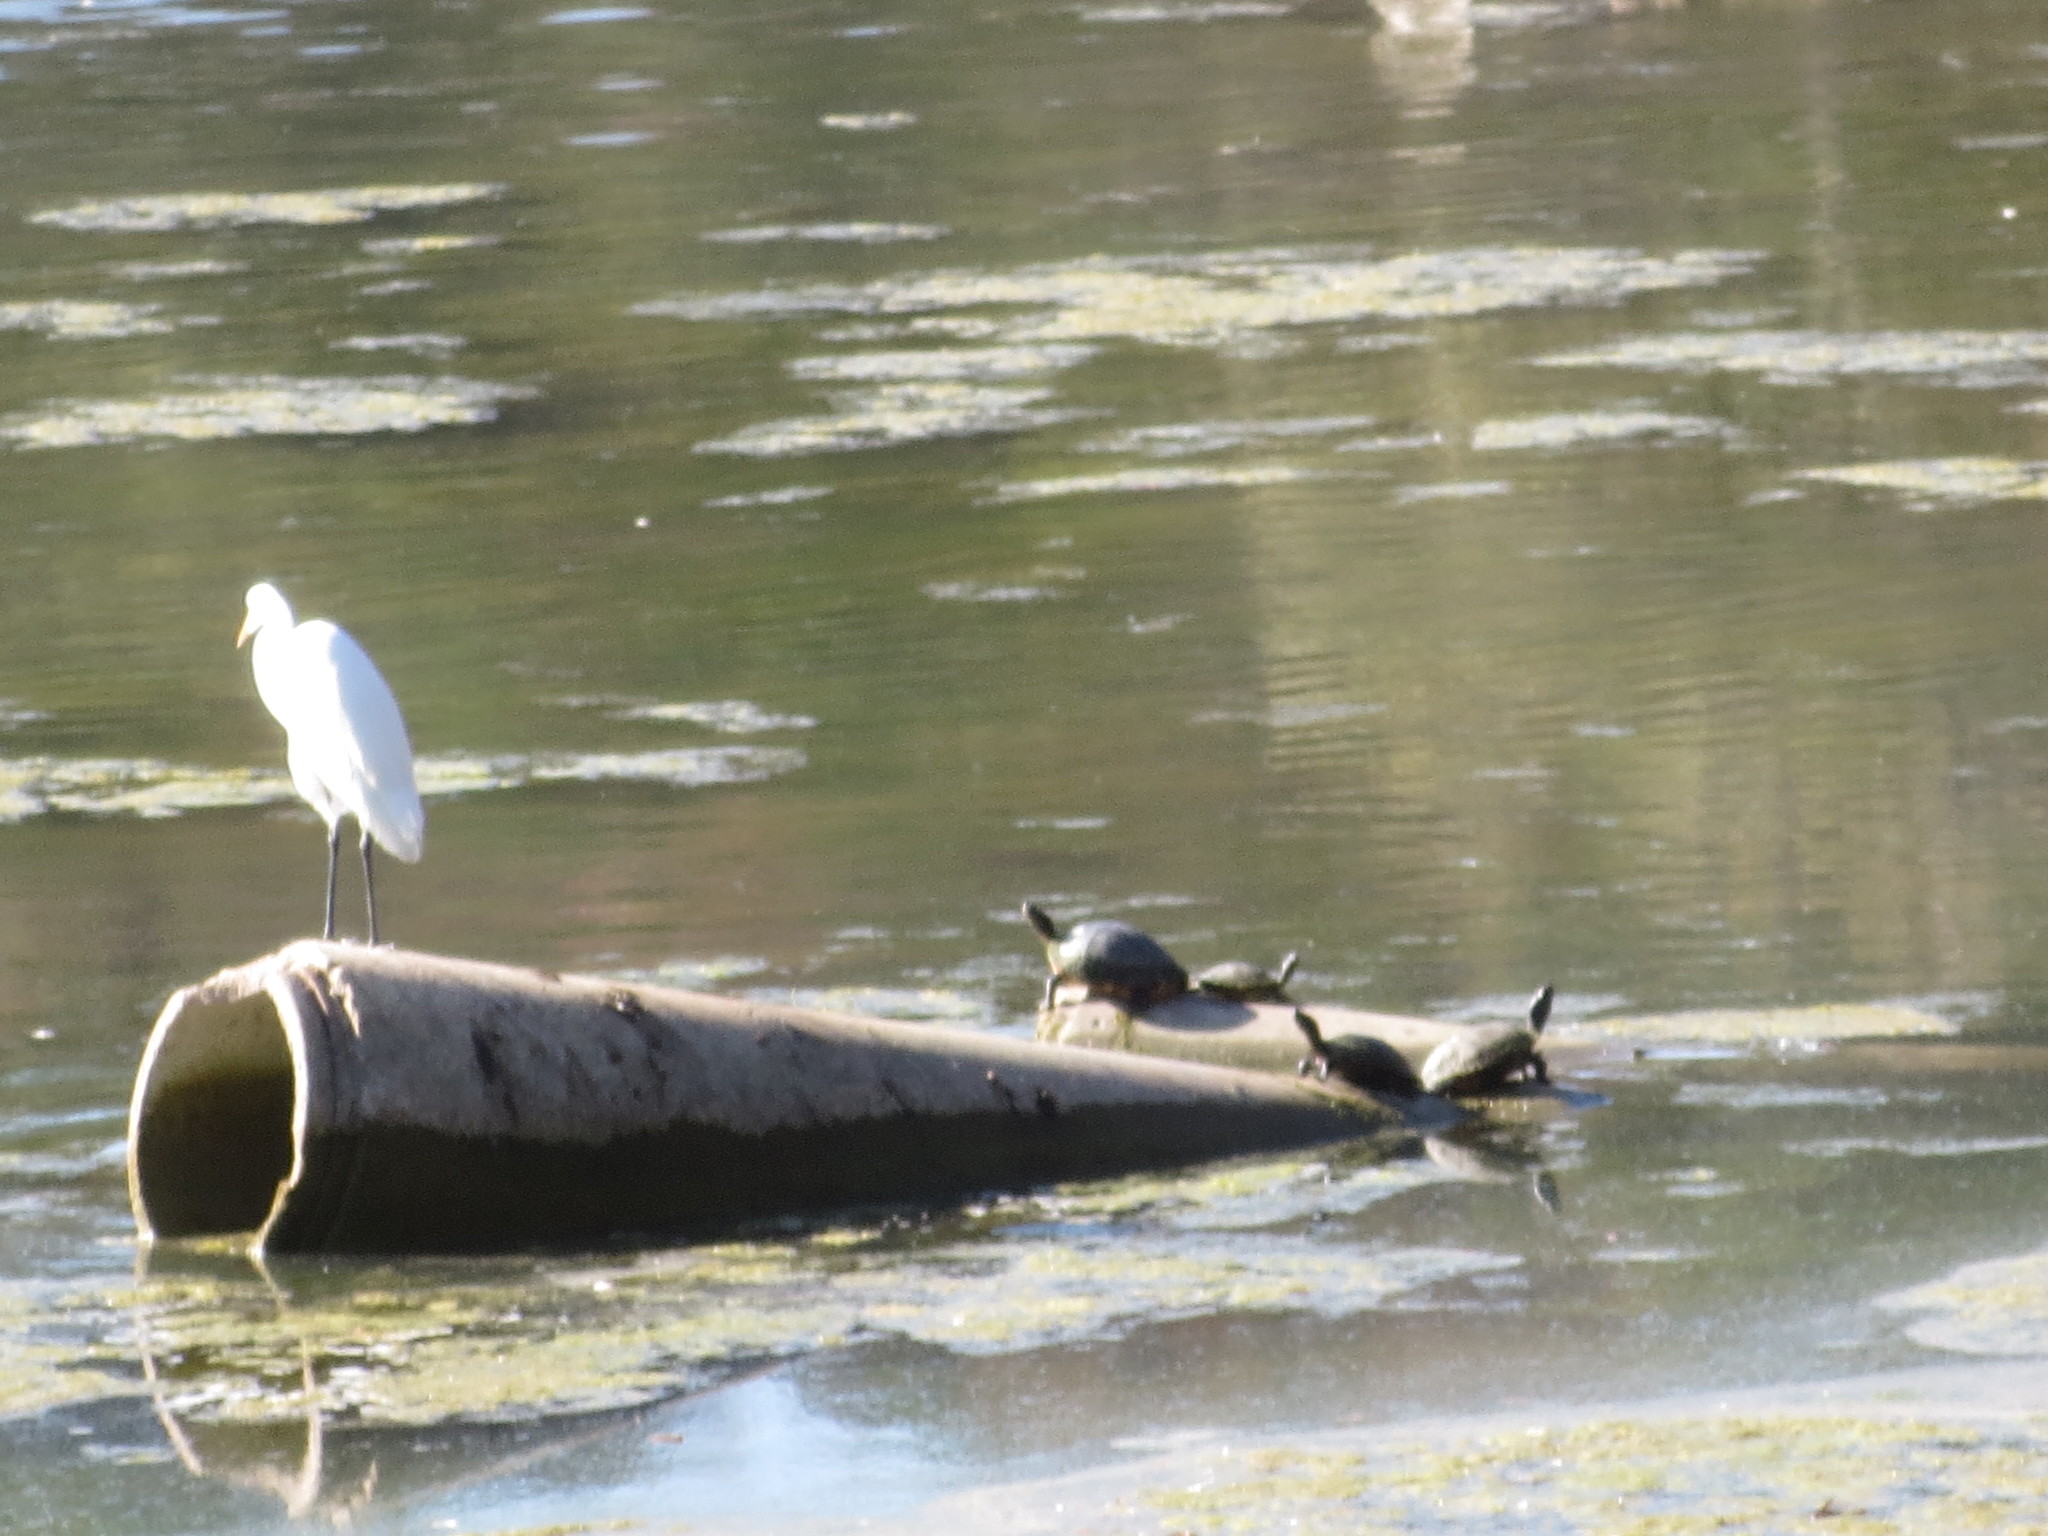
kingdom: Animalia
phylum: Chordata
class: Aves
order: Pelecaniformes
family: Ardeidae
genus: Ardea
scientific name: Ardea alba
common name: Great egret
